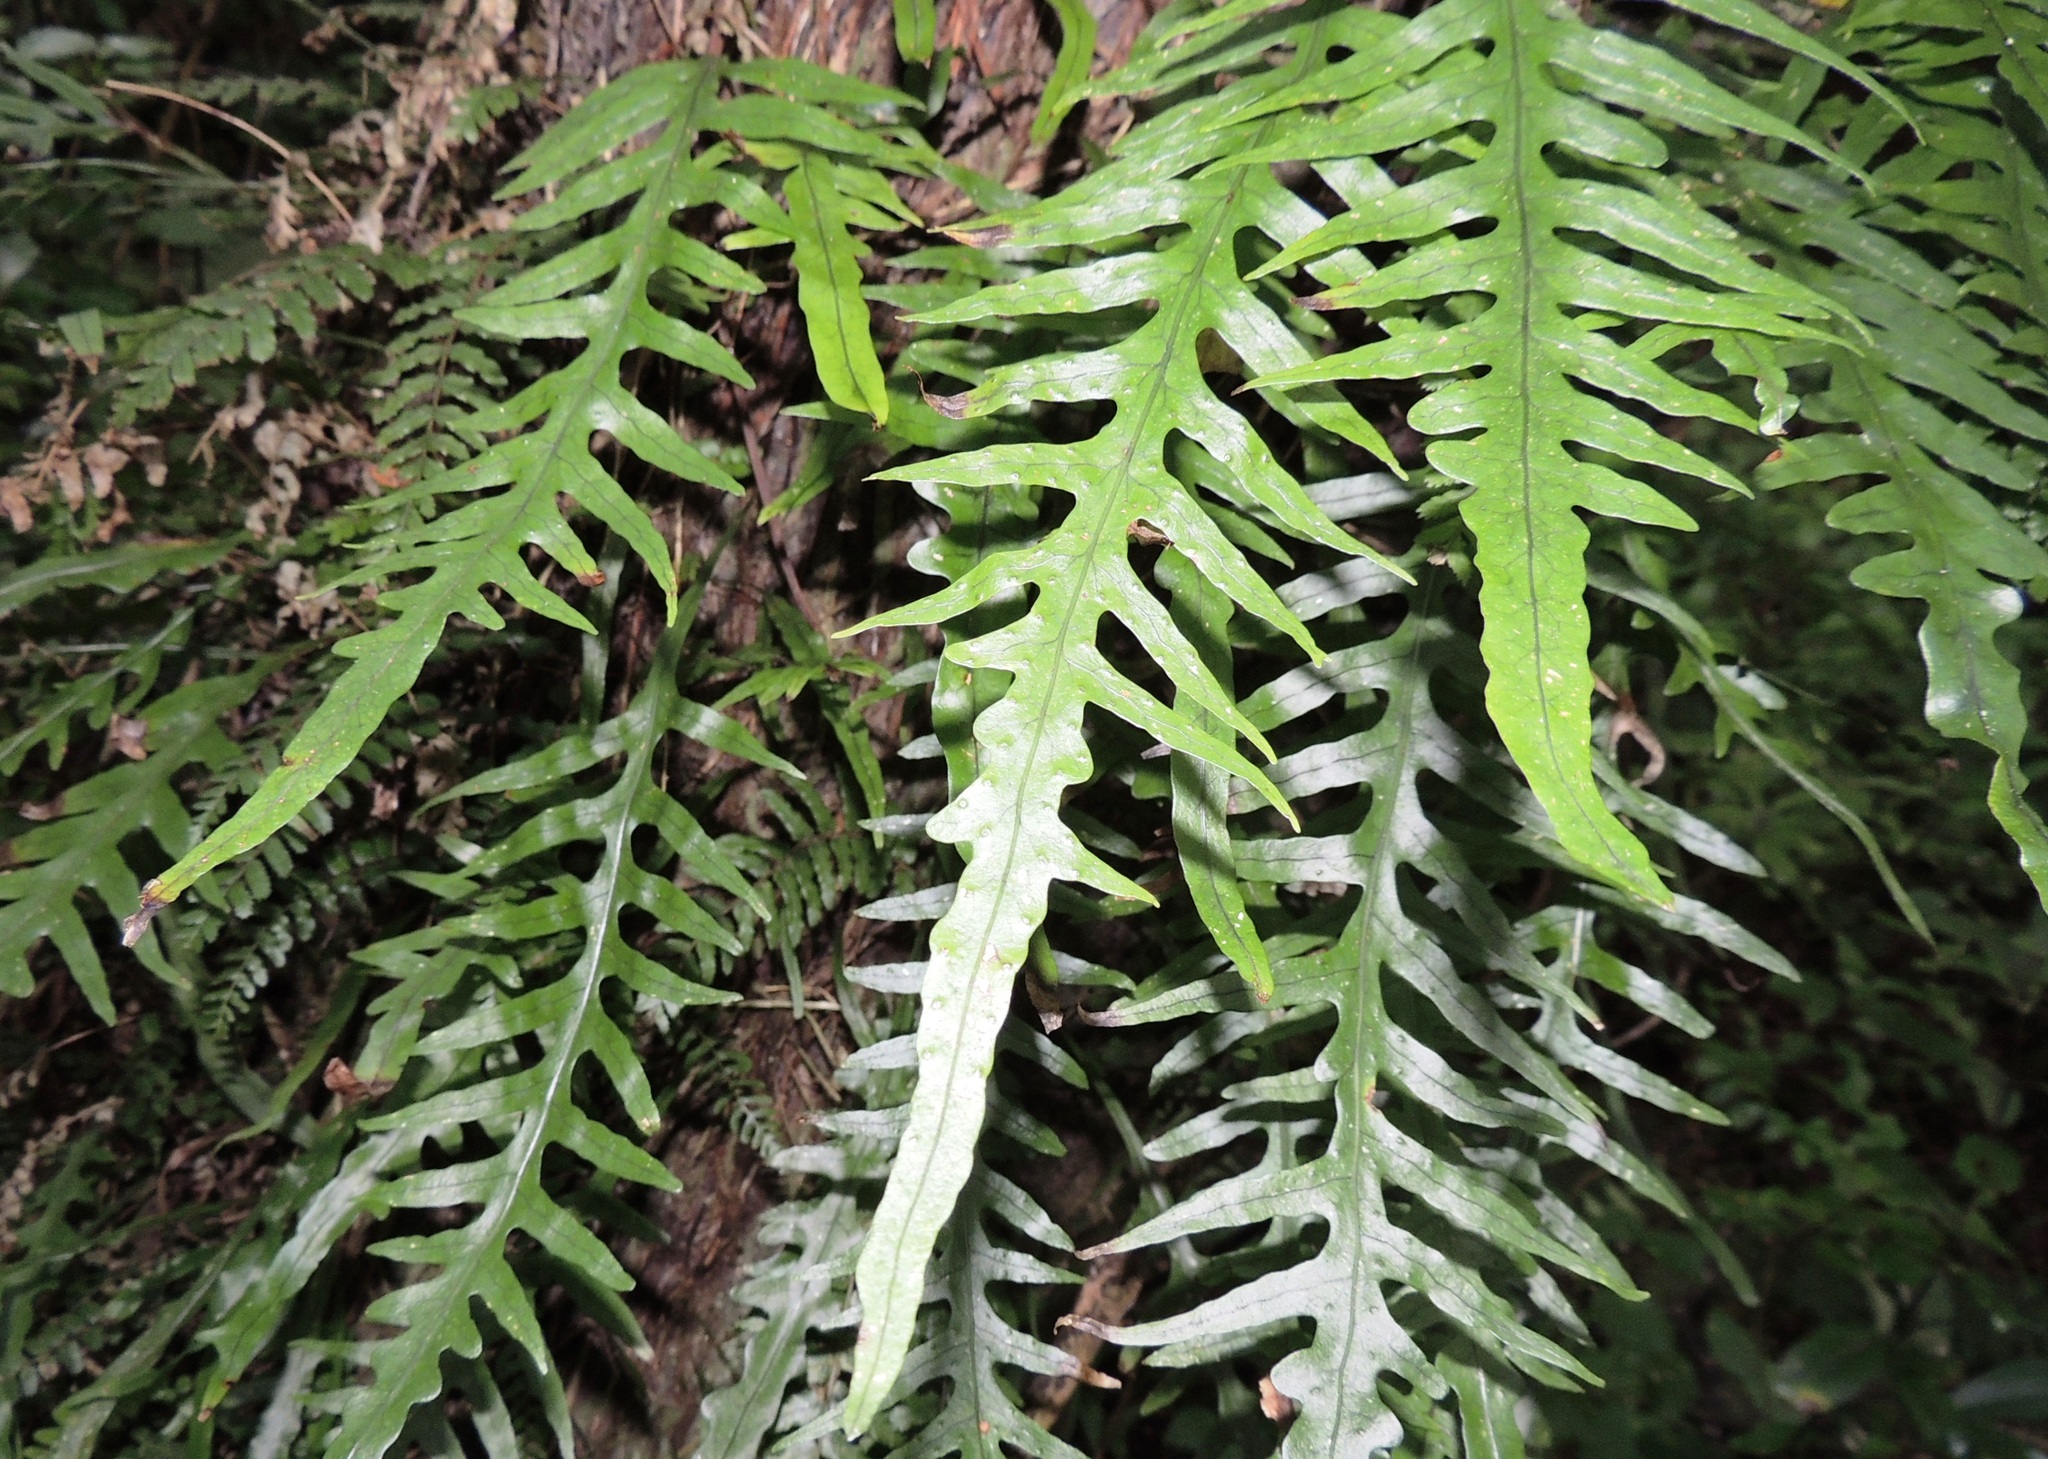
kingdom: Plantae
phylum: Tracheophyta
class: Polypodiopsida
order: Polypodiales
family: Polypodiaceae
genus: Lecanopteris
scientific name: Lecanopteris scandens
